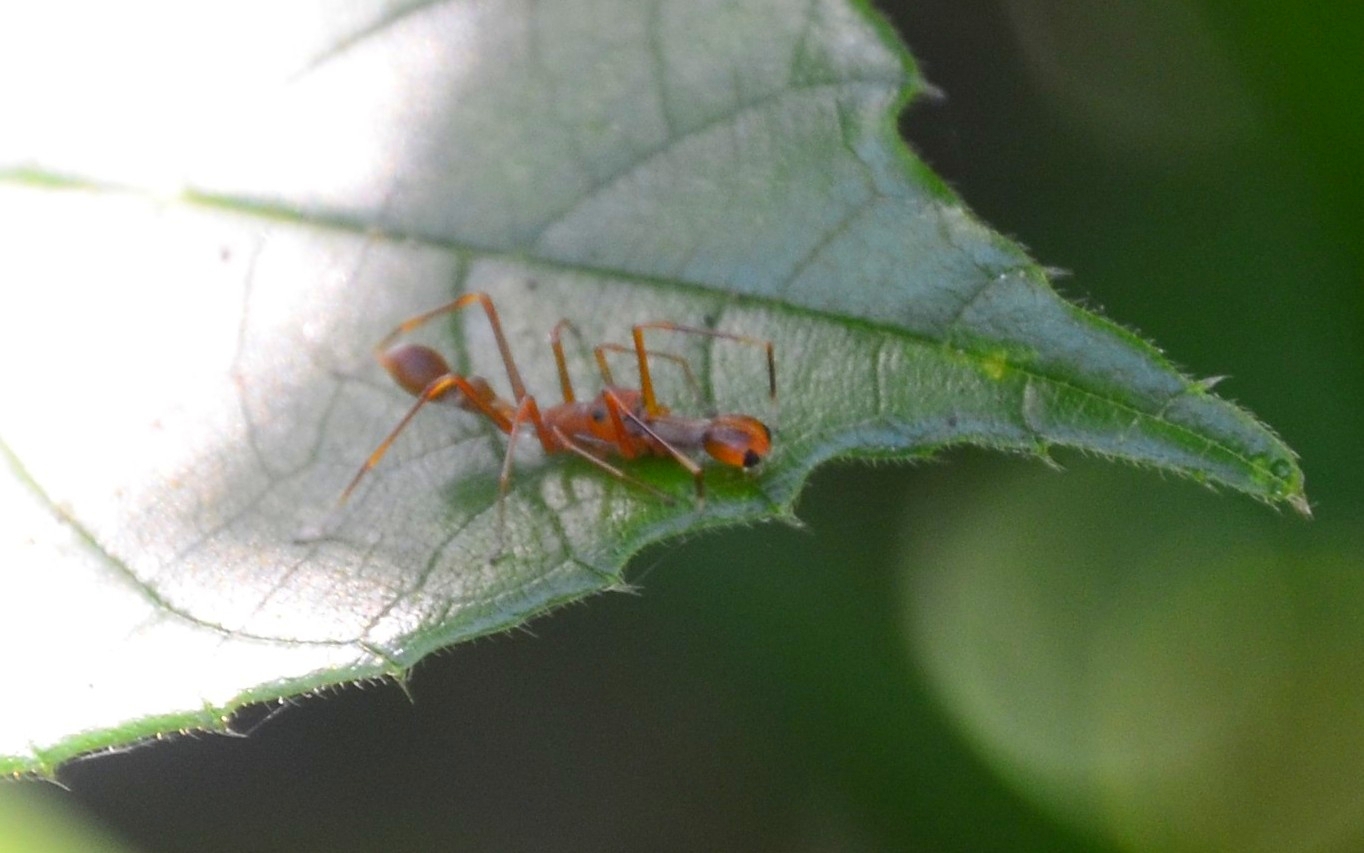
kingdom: Animalia
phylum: Arthropoda
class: Arachnida
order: Araneae
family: Salticidae
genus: Myrmaplata
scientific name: Myrmaplata plataleoides
